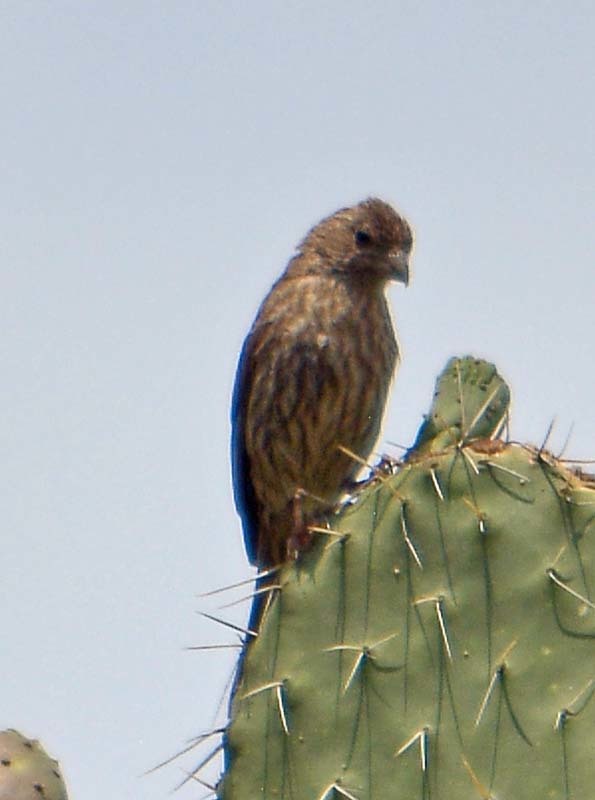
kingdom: Animalia
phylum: Chordata
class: Aves
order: Passeriformes
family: Fringillidae
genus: Haemorhous
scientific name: Haemorhous mexicanus
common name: House finch
